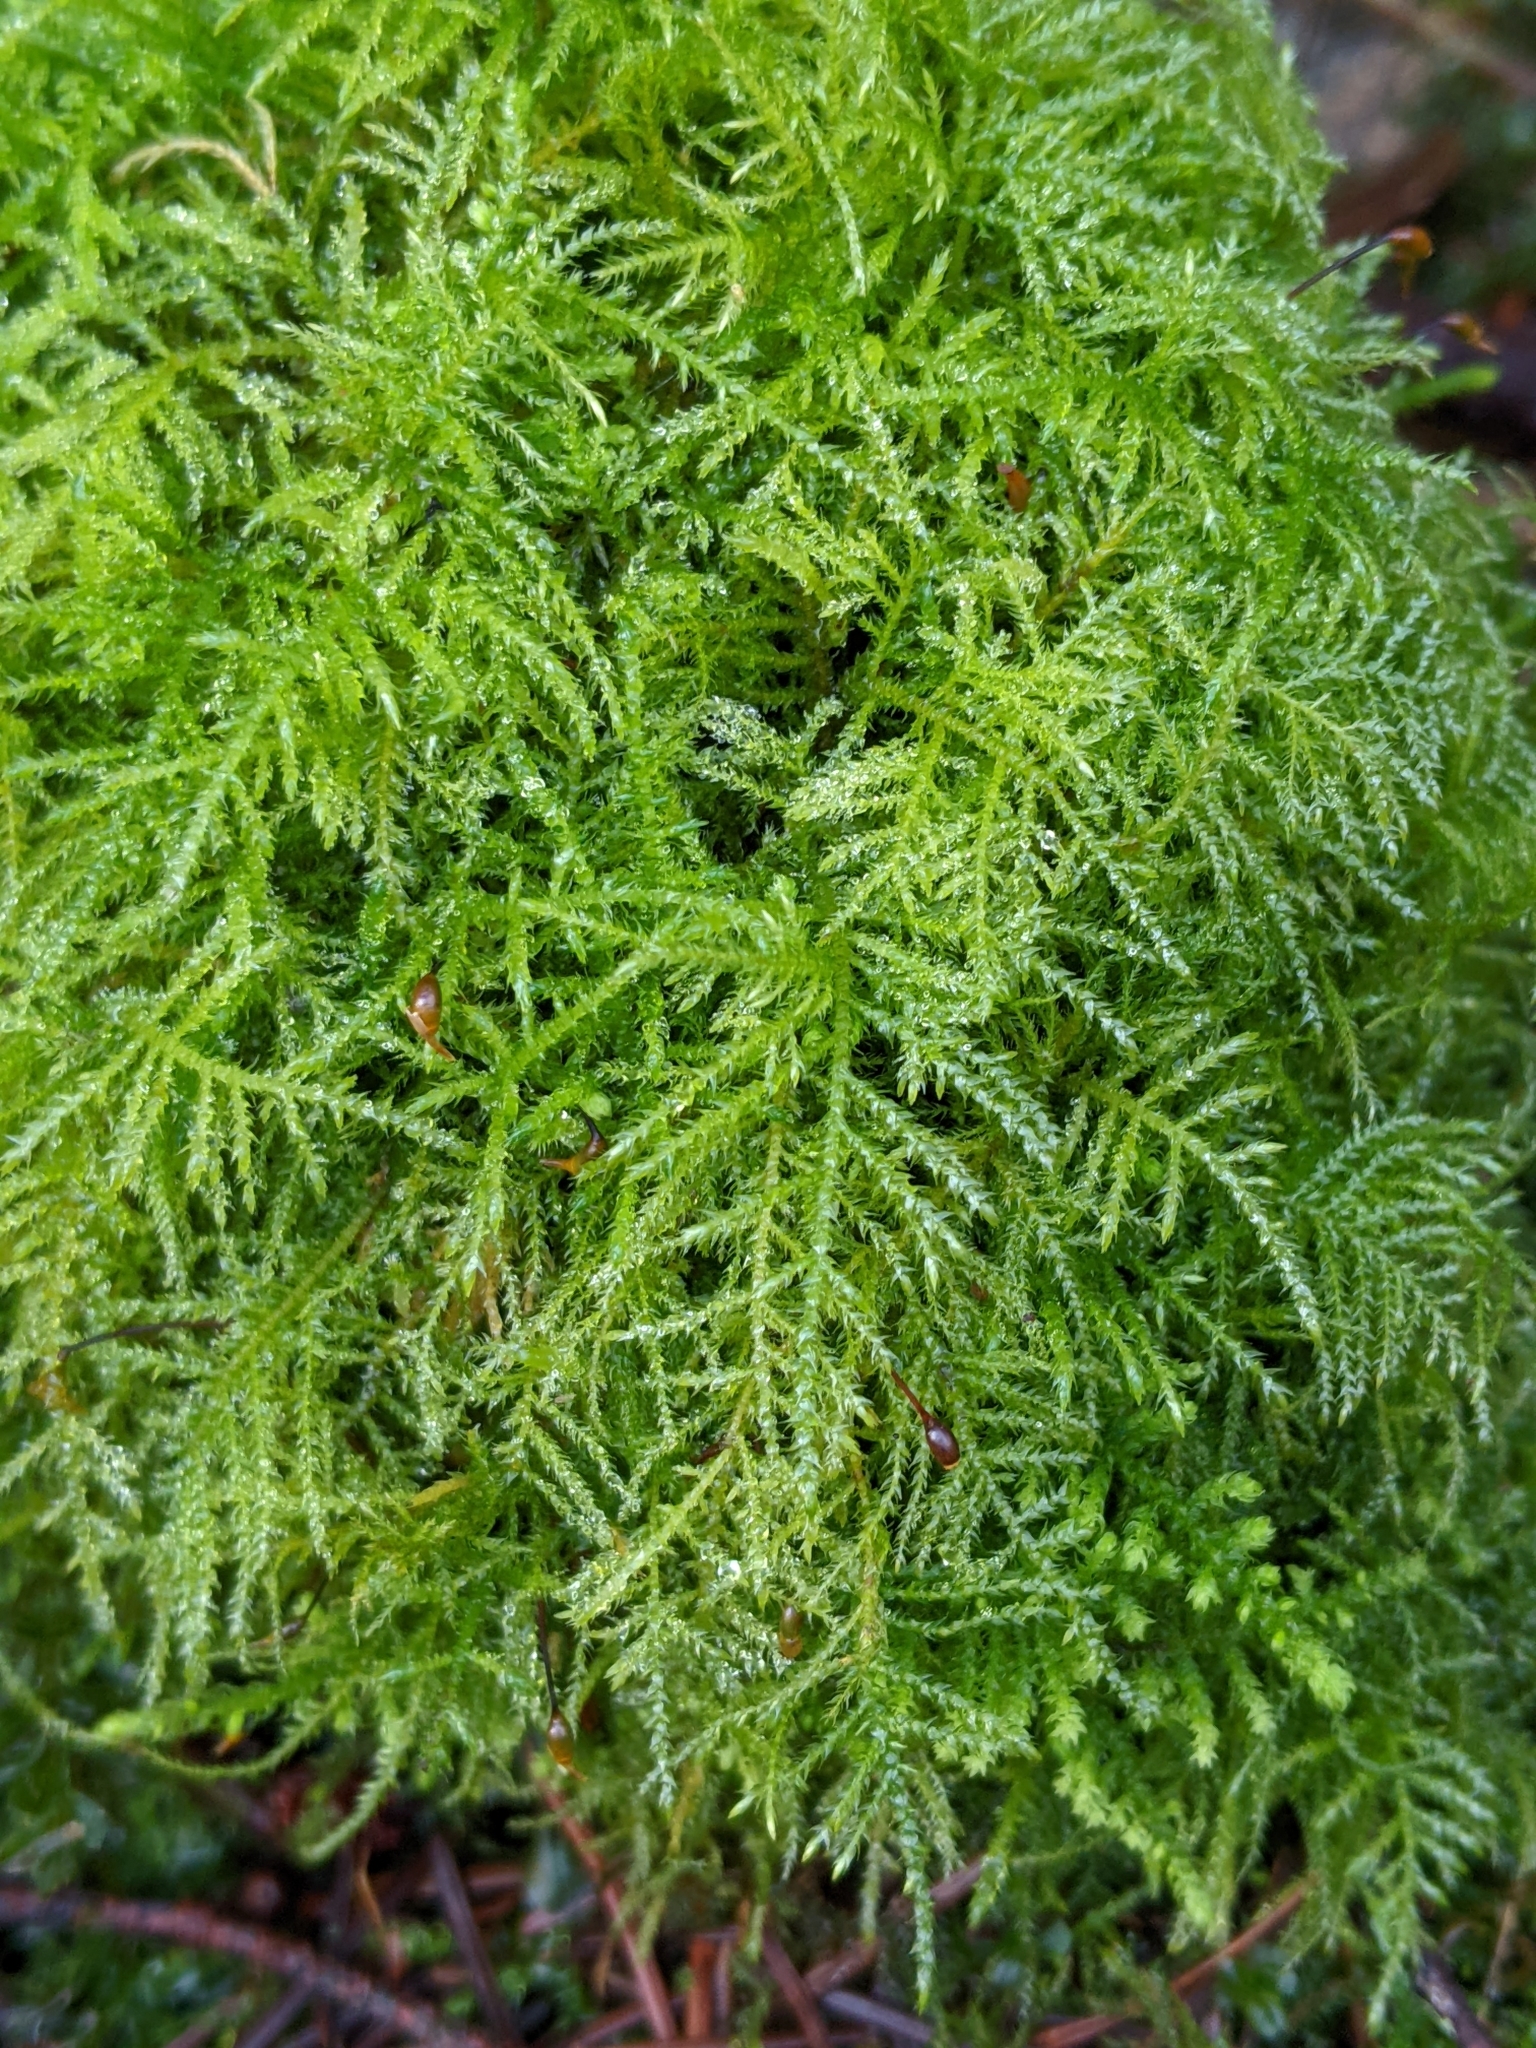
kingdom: Plantae
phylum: Bryophyta
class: Bryopsida
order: Hypnales
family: Brachytheciaceae
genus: Kindbergia
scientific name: Kindbergia praelonga
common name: Slender beaked moss
